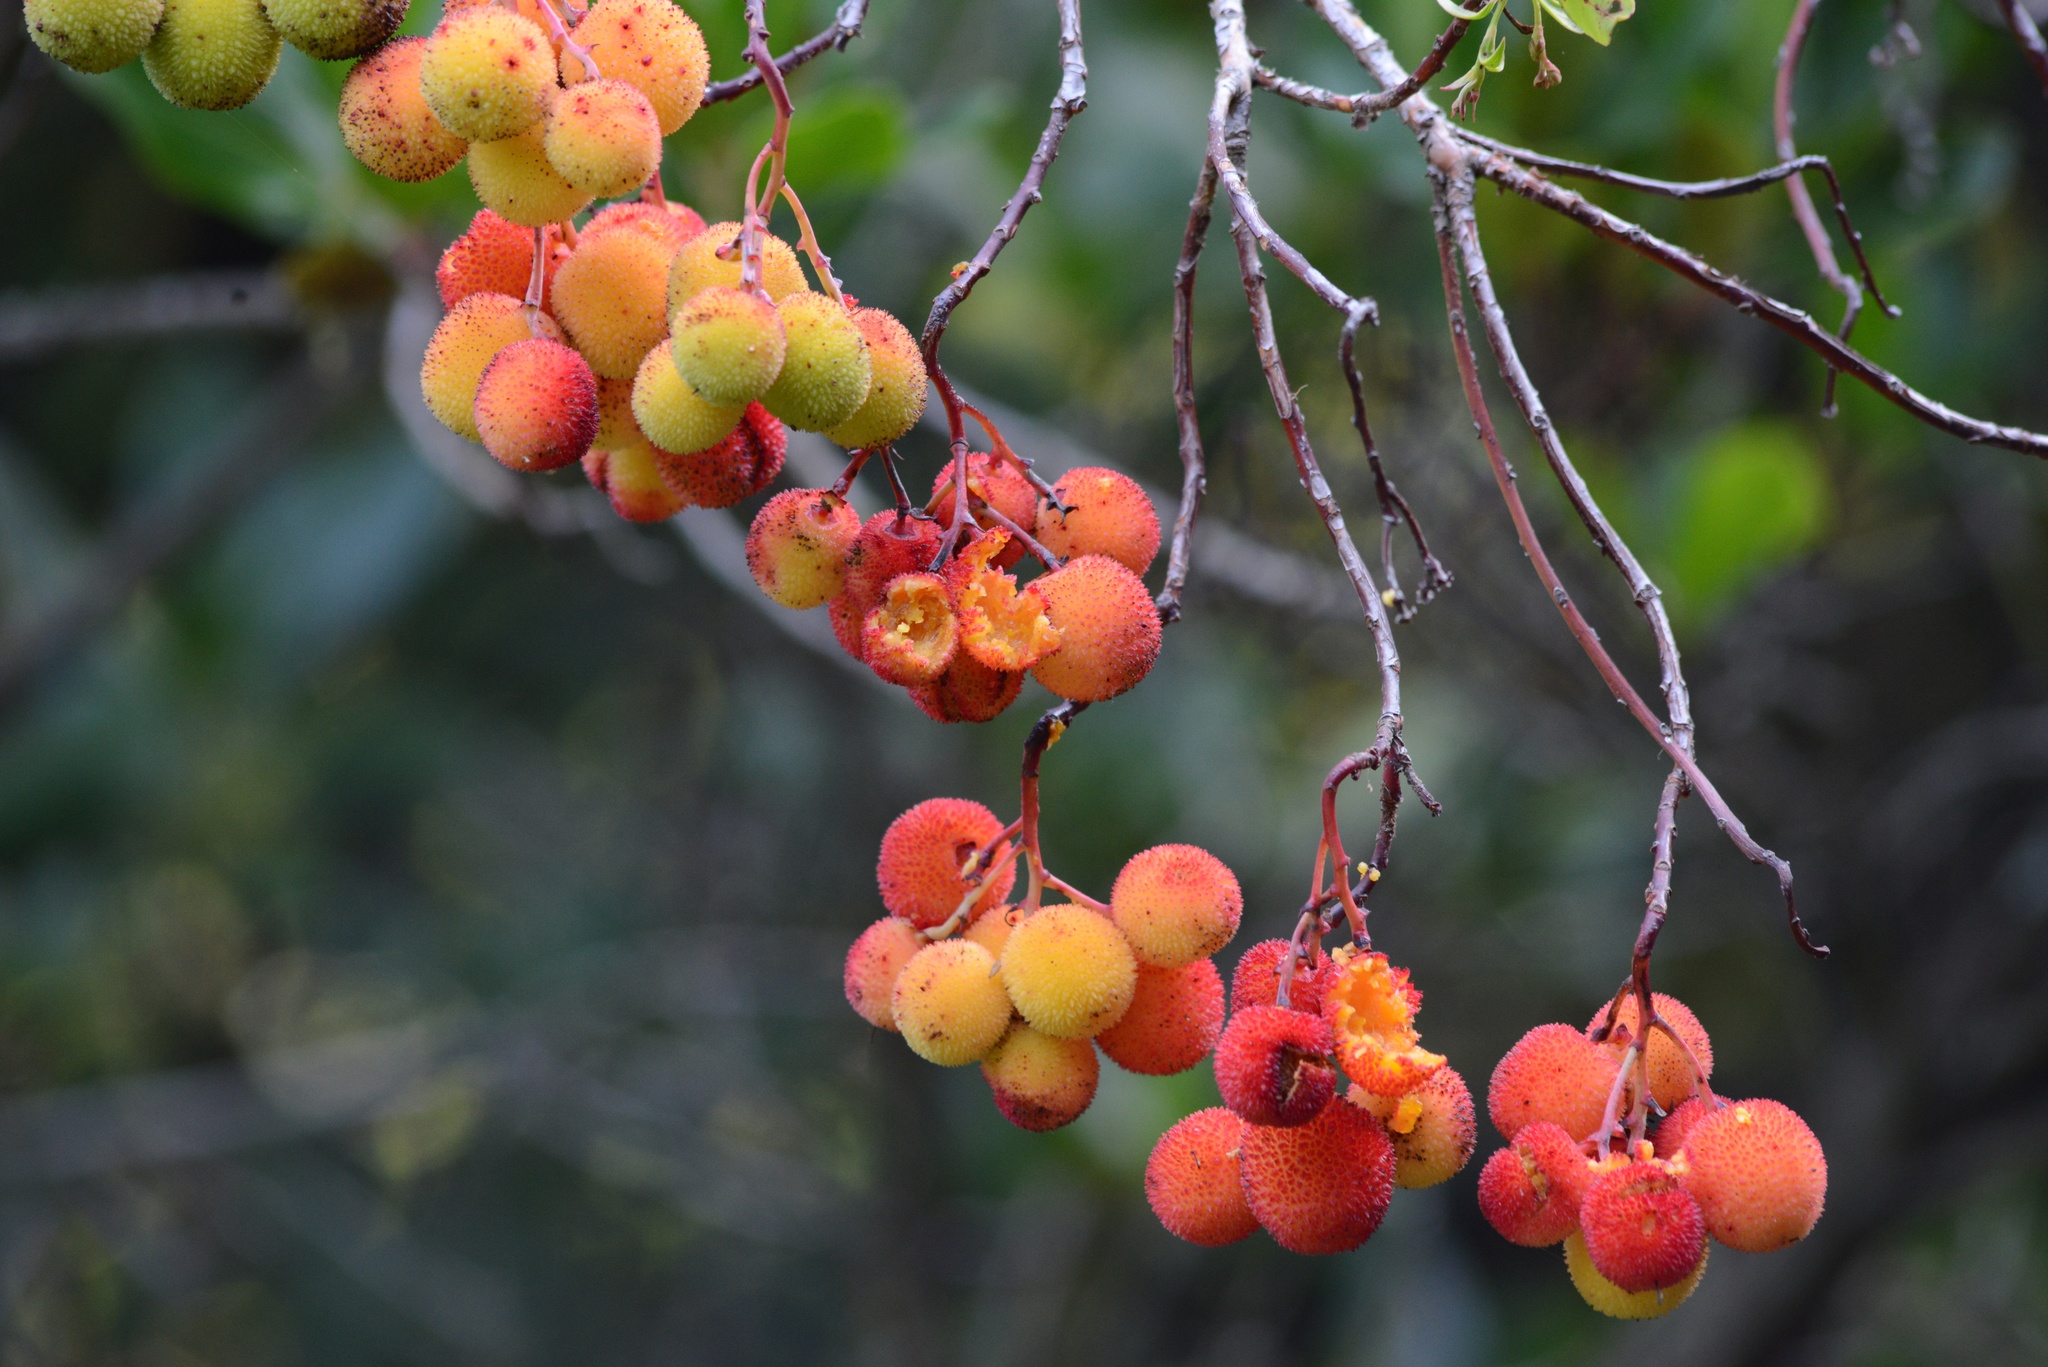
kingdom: Plantae
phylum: Tracheophyta
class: Magnoliopsida
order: Ericales
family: Ericaceae
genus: Arbutus
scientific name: Arbutus unedo
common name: Strawberry-tree
